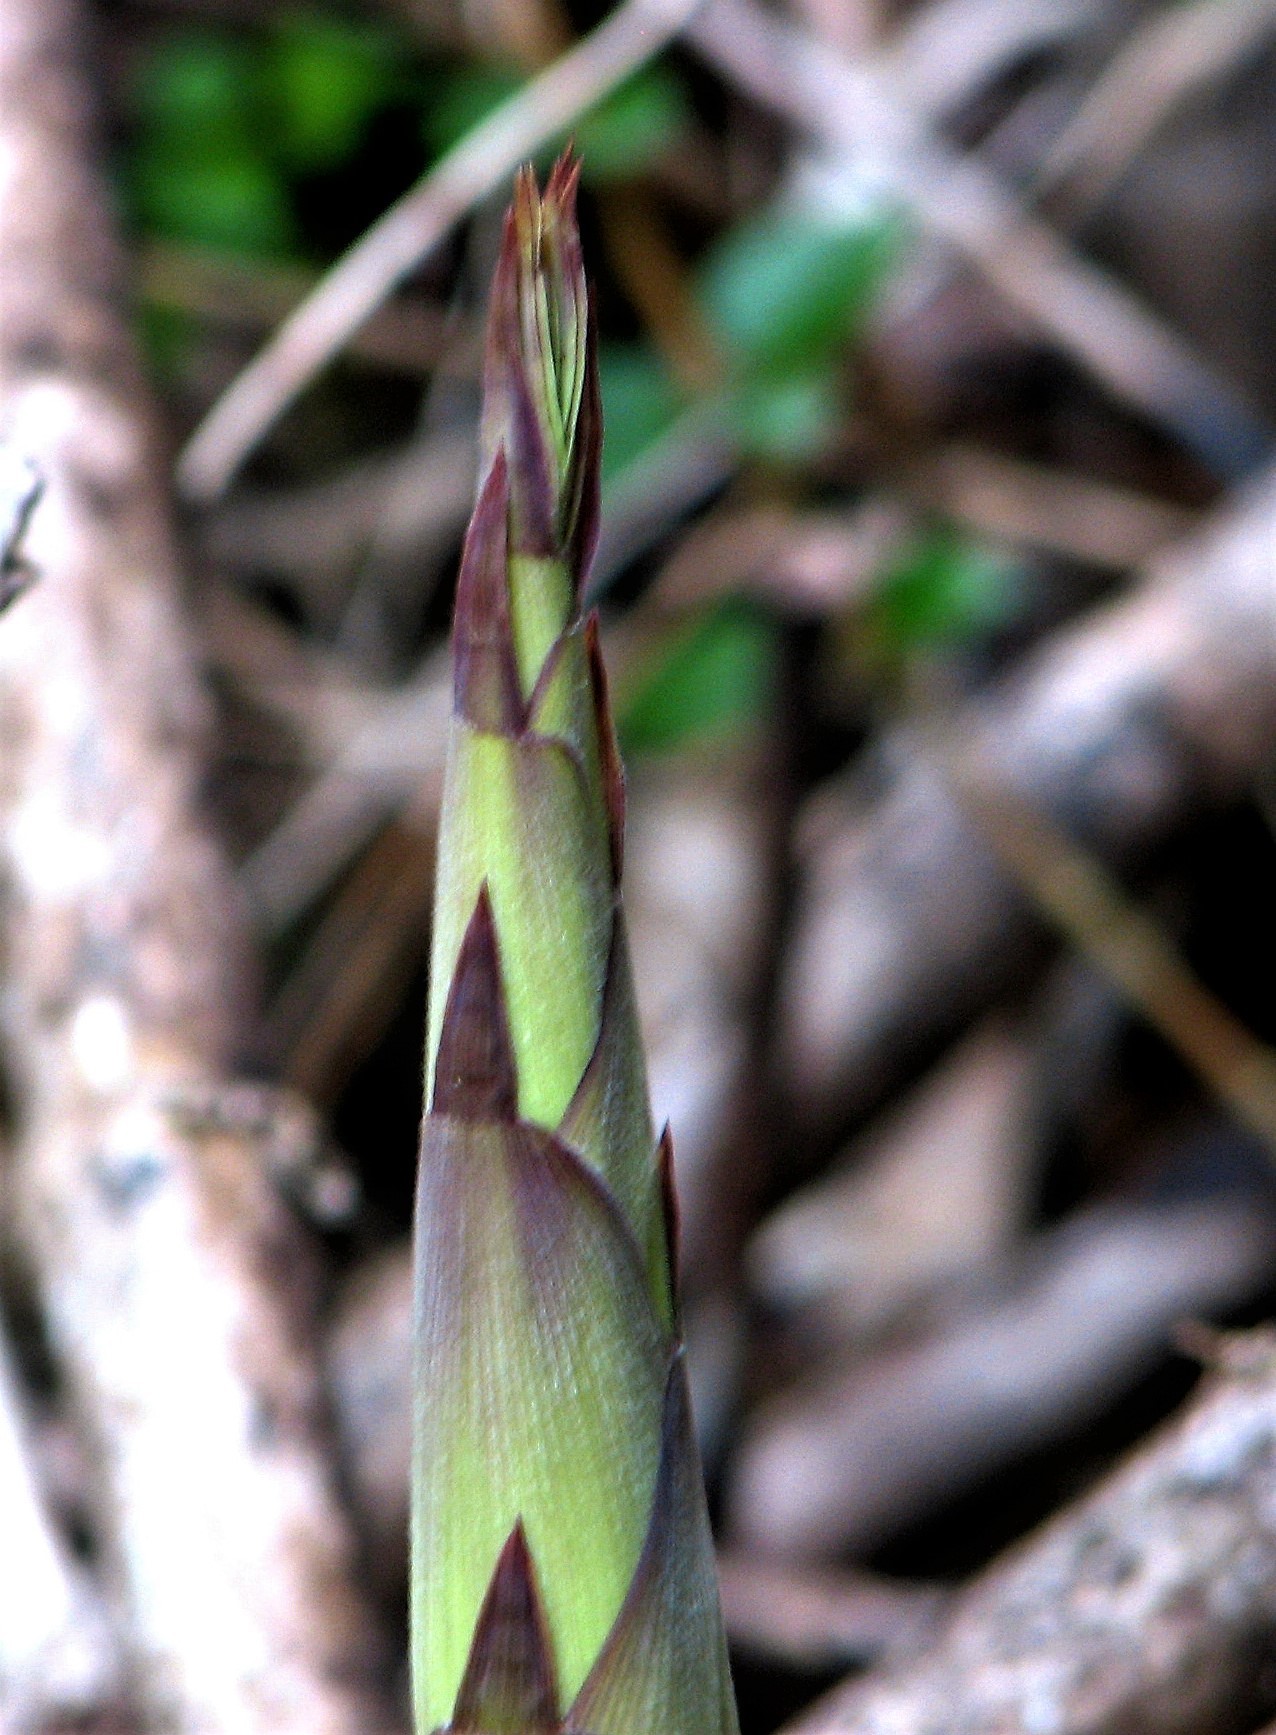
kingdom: Plantae
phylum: Tracheophyta
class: Liliopsida
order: Poales
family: Poaceae
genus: Chusquea
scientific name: Chusquea culeou
